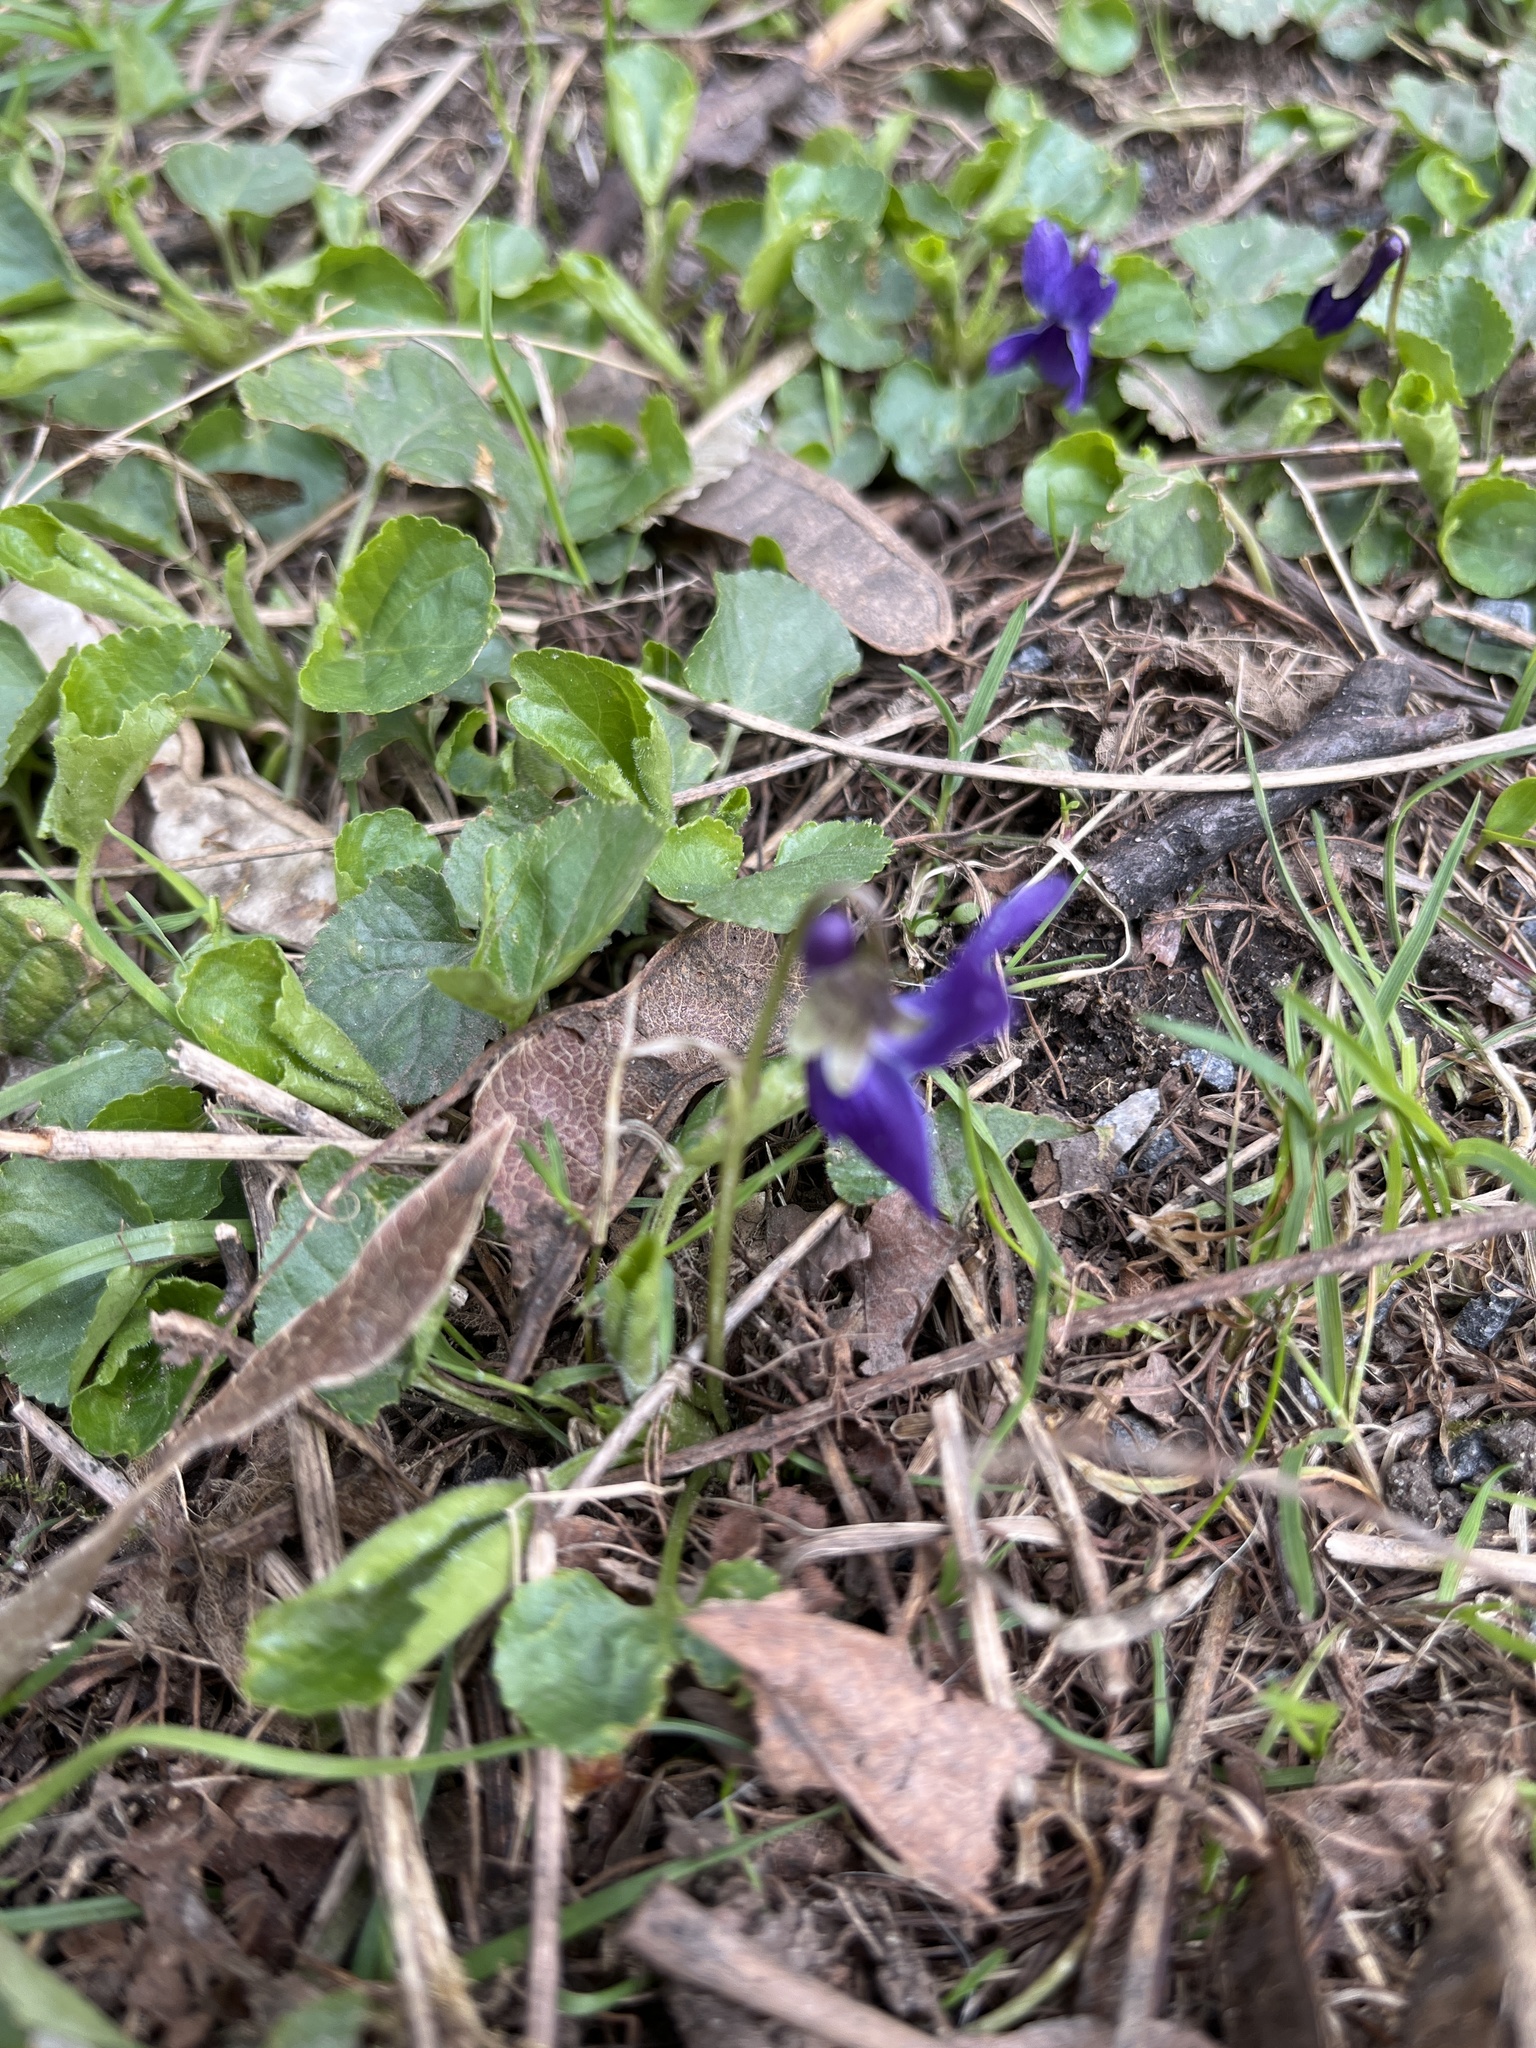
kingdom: Plantae
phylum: Tracheophyta
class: Magnoliopsida
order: Malpighiales
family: Violaceae
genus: Viola
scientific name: Viola odorata
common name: Sweet violet
